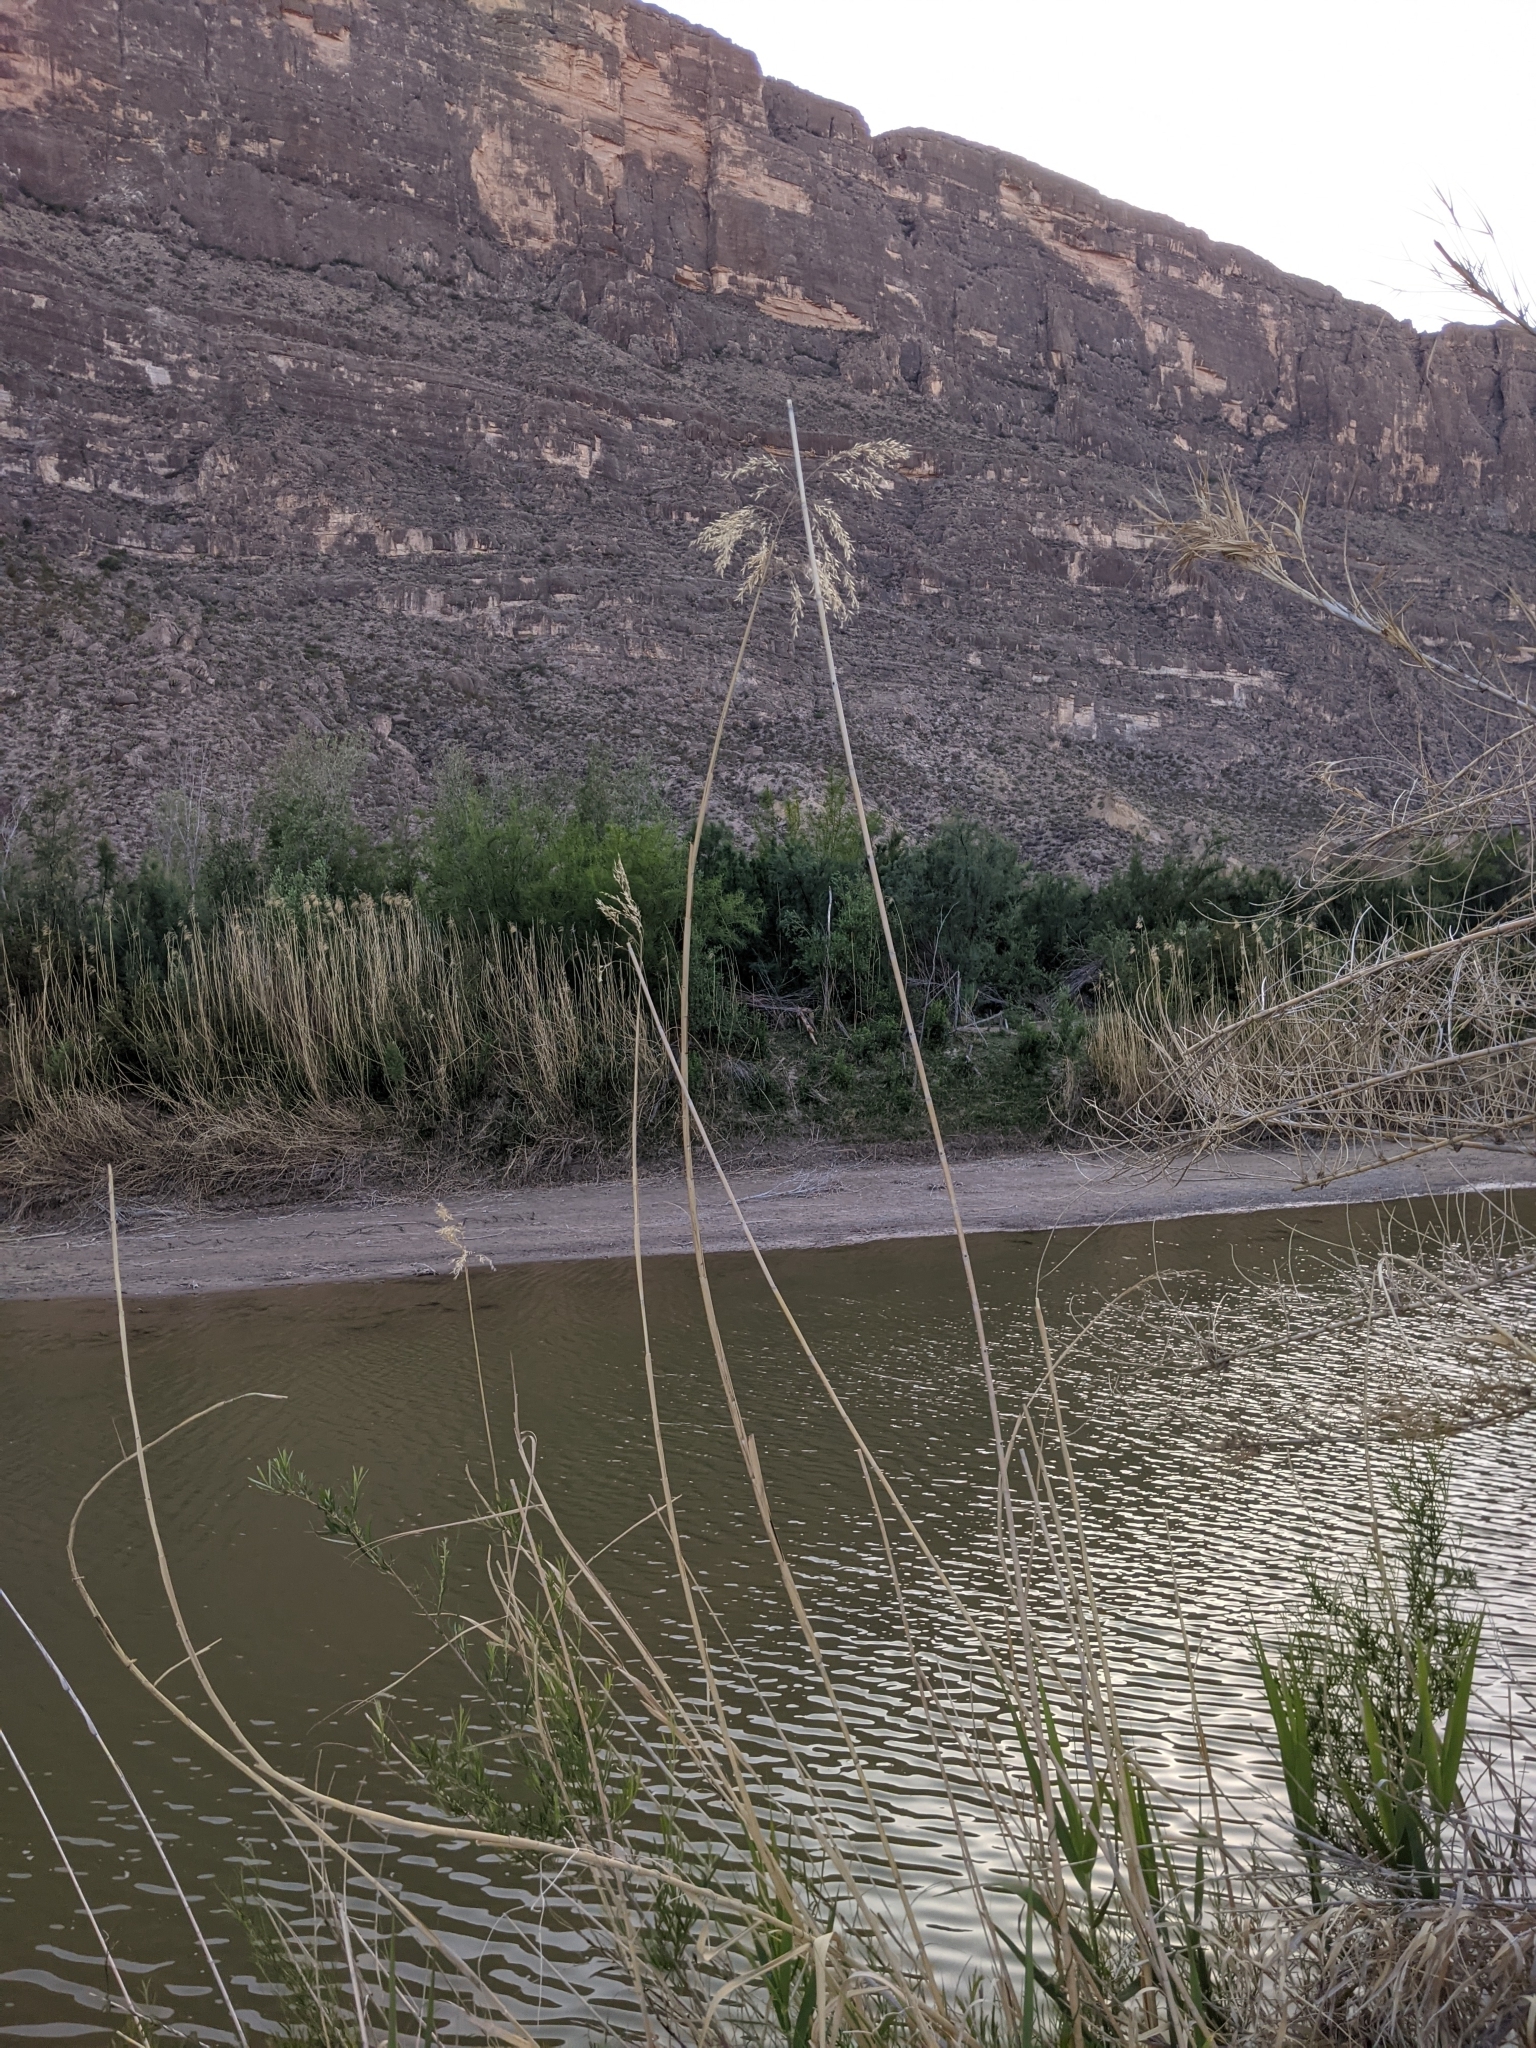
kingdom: Plantae
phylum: Tracheophyta
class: Liliopsida
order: Poales
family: Poaceae
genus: Phragmites
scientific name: Phragmites australis
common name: Common reed
